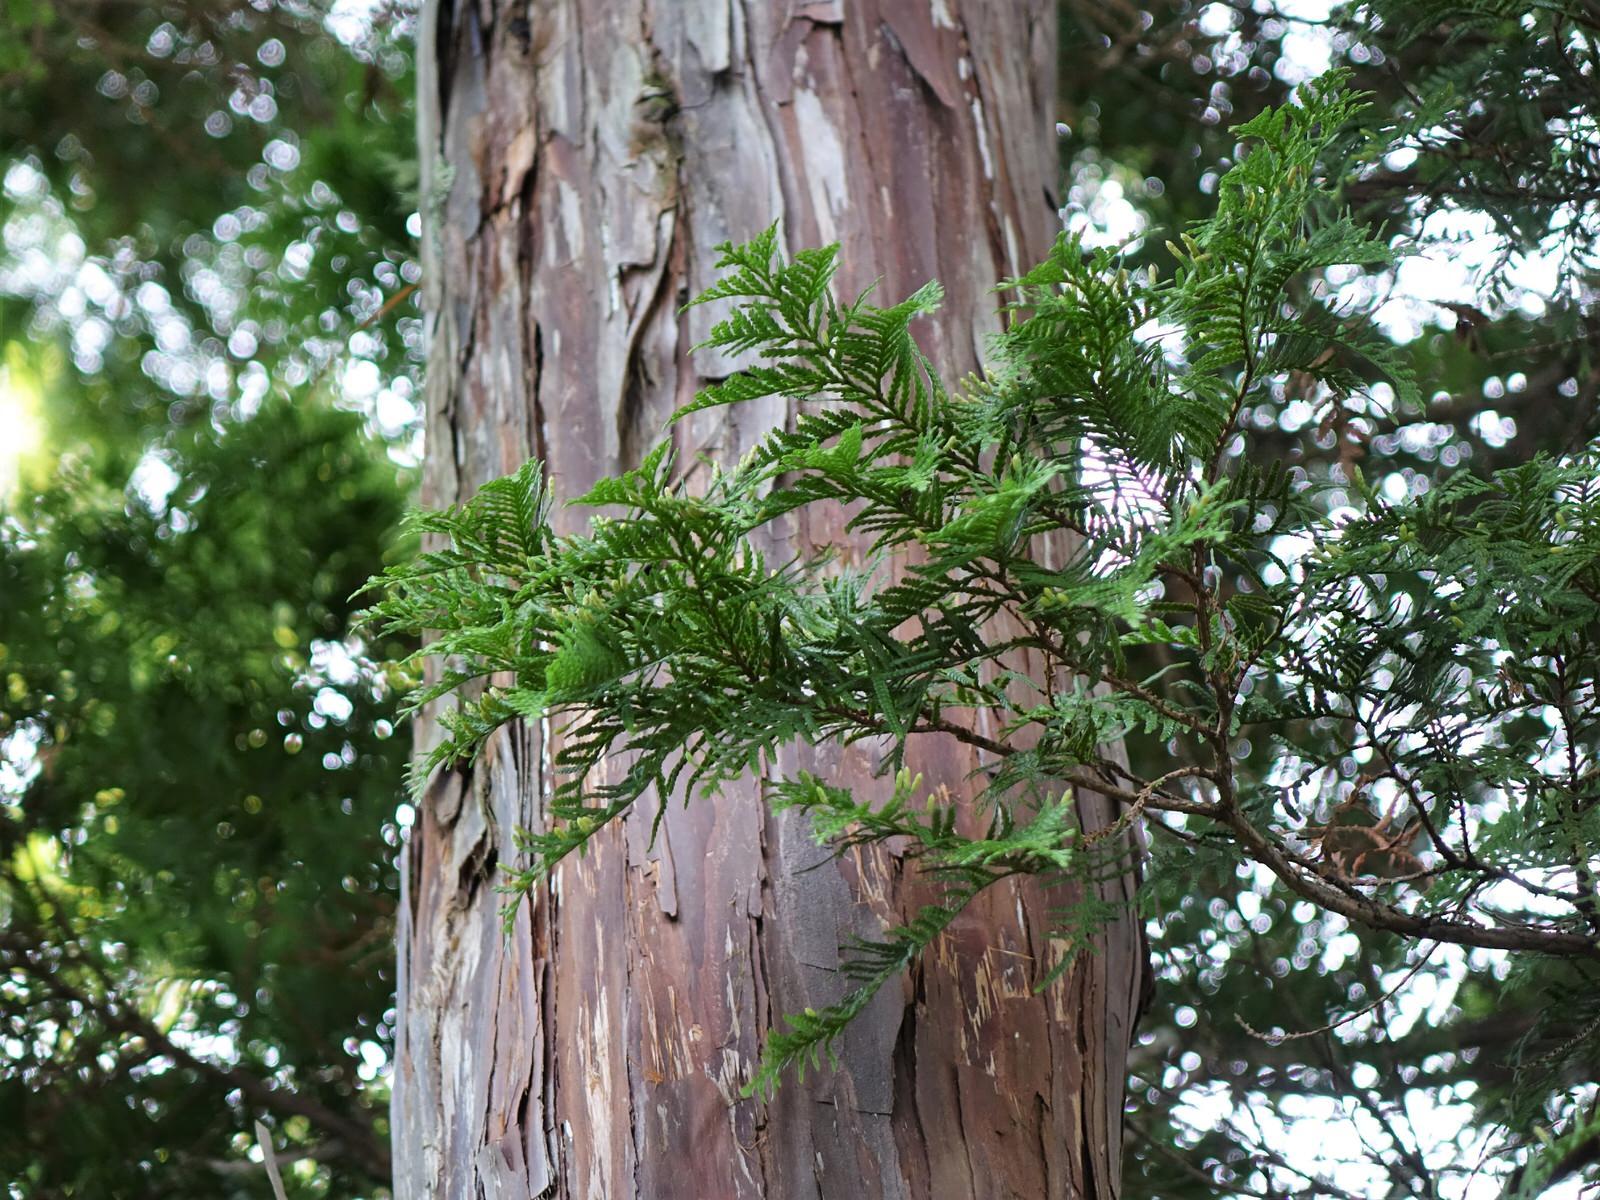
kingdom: Plantae
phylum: Tracheophyta
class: Pinopsida
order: Pinales
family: Cupressaceae
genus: Libocedrus
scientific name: Libocedrus plumosa
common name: New zealand cedar
